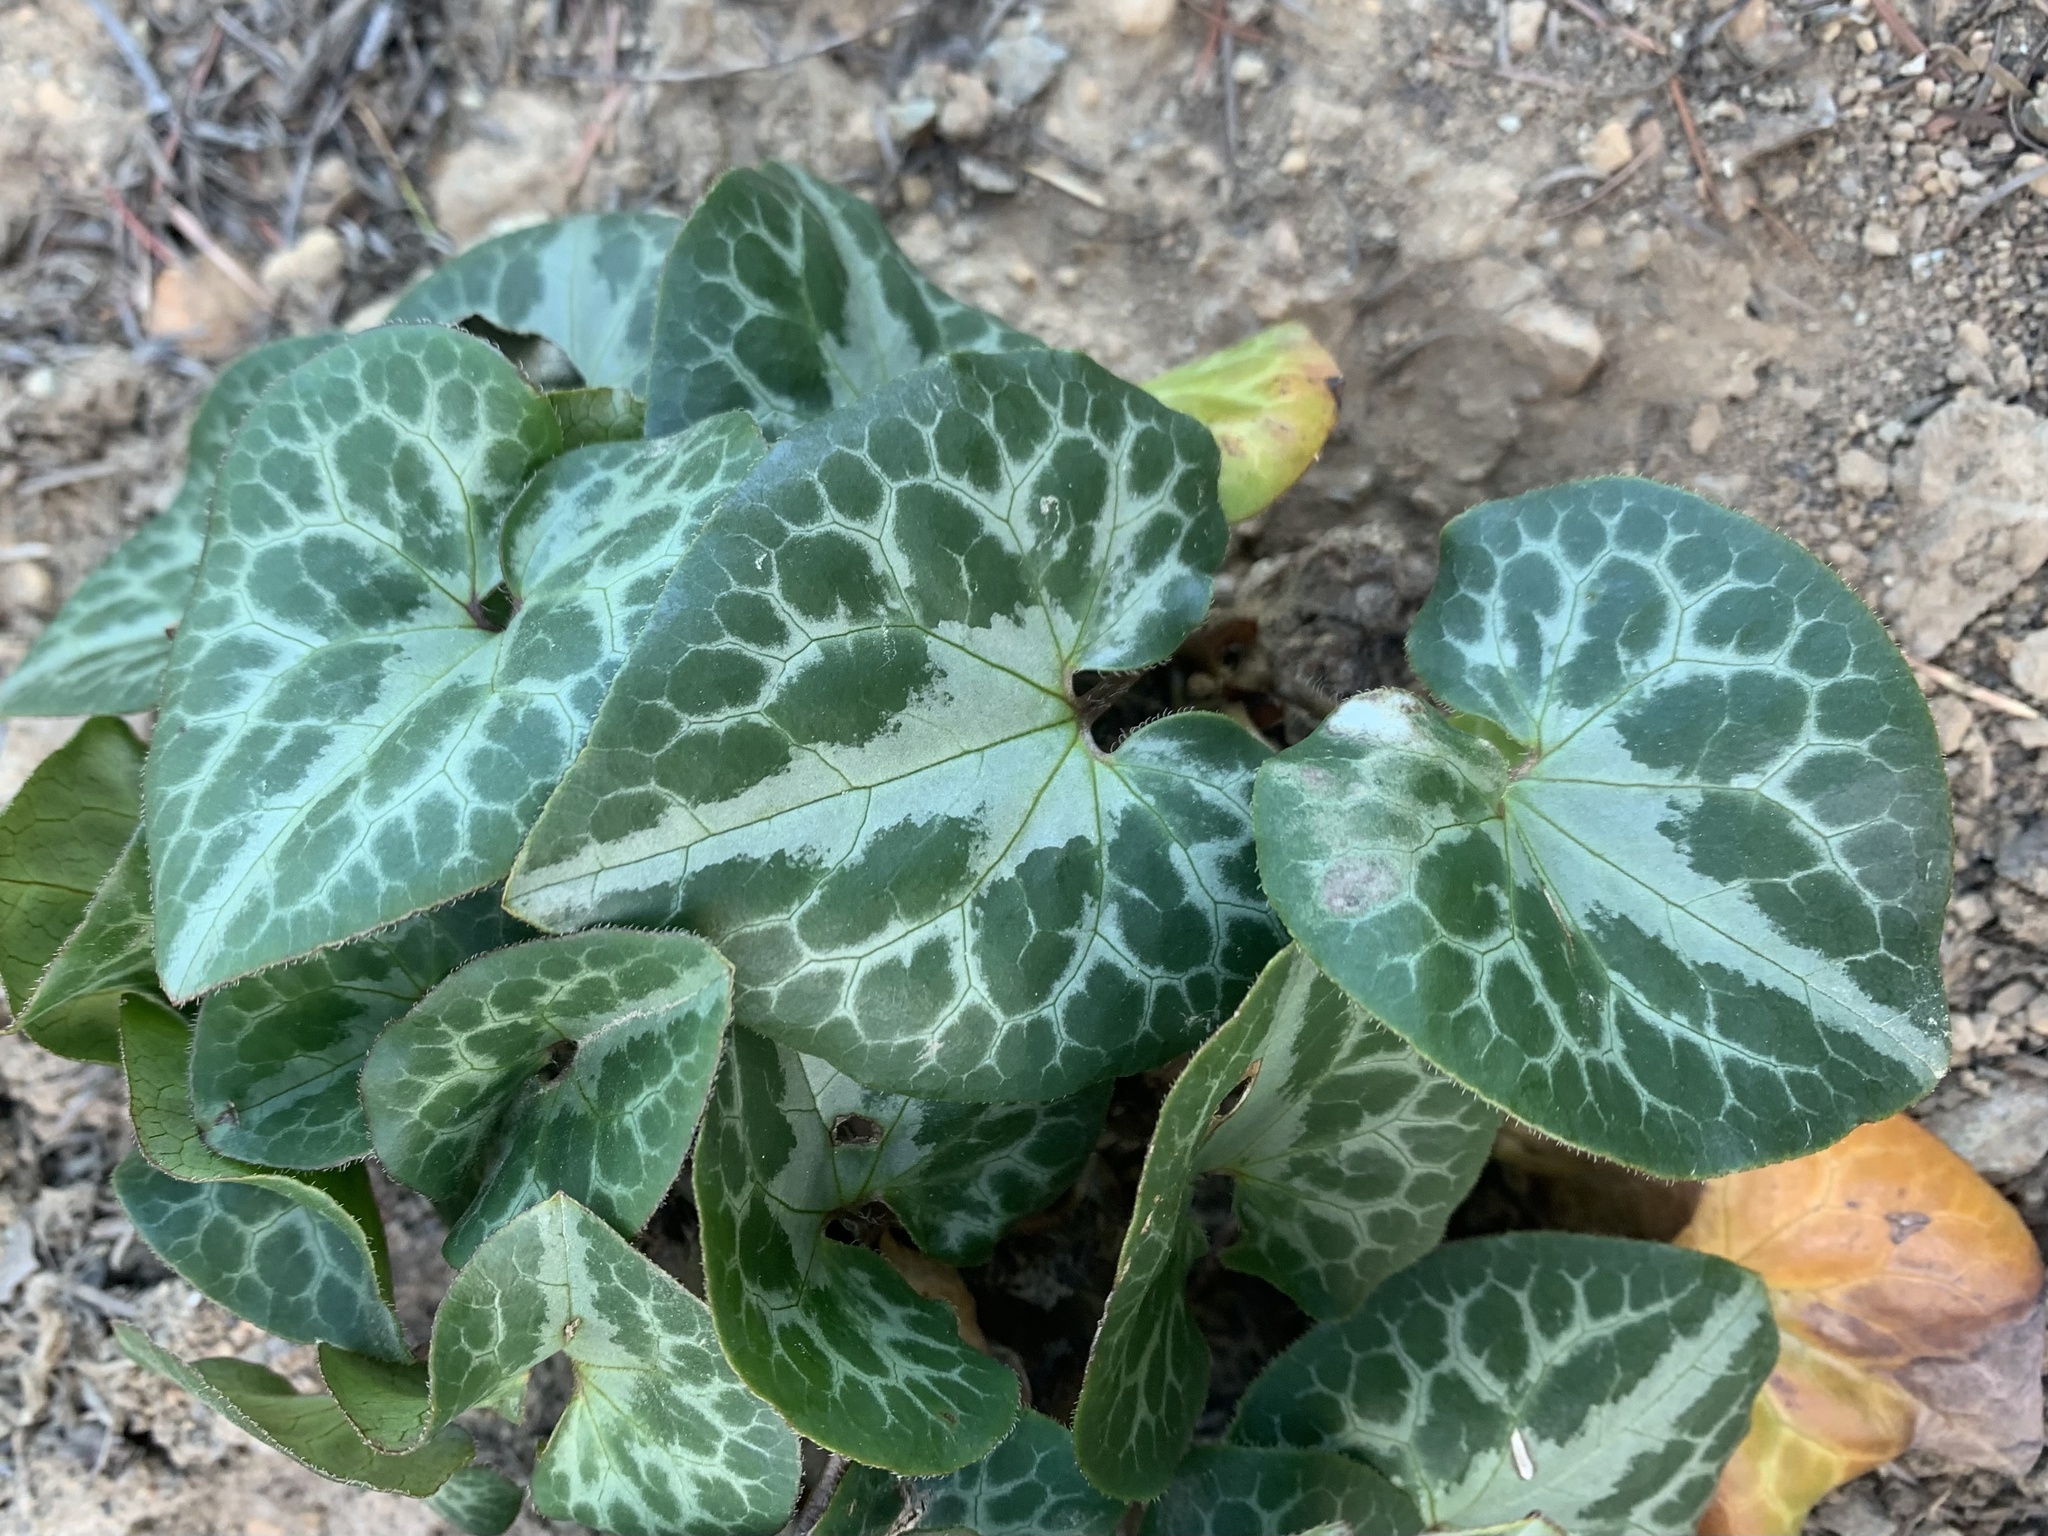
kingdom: Plantae
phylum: Tracheophyta
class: Magnoliopsida
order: Piperales
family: Aristolochiaceae
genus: Asarum
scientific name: Asarum marmoratum
